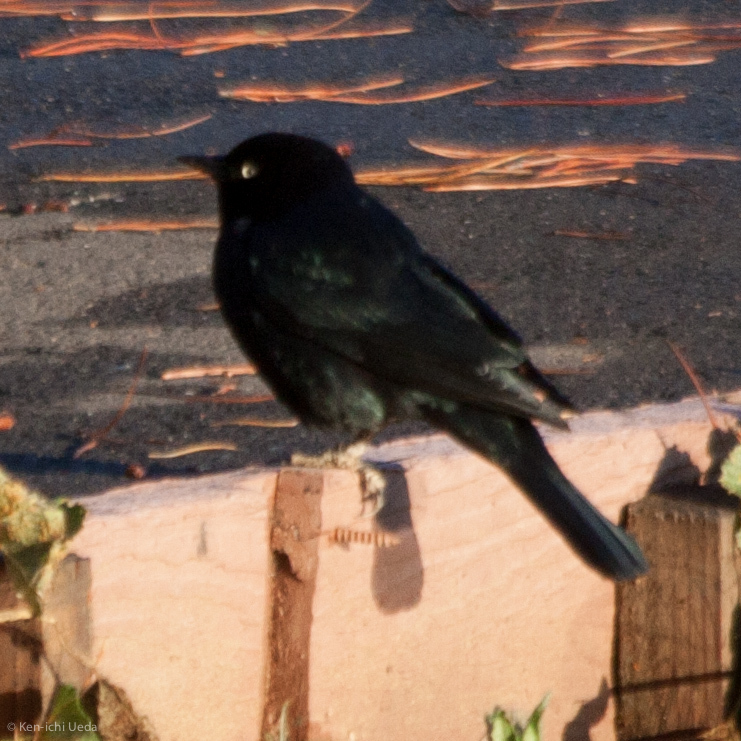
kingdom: Animalia
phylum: Chordata
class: Aves
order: Passeriformes
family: Icteridae
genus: Euphagus
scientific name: Euphagus cyanocephalus
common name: Brewer's blackbird
